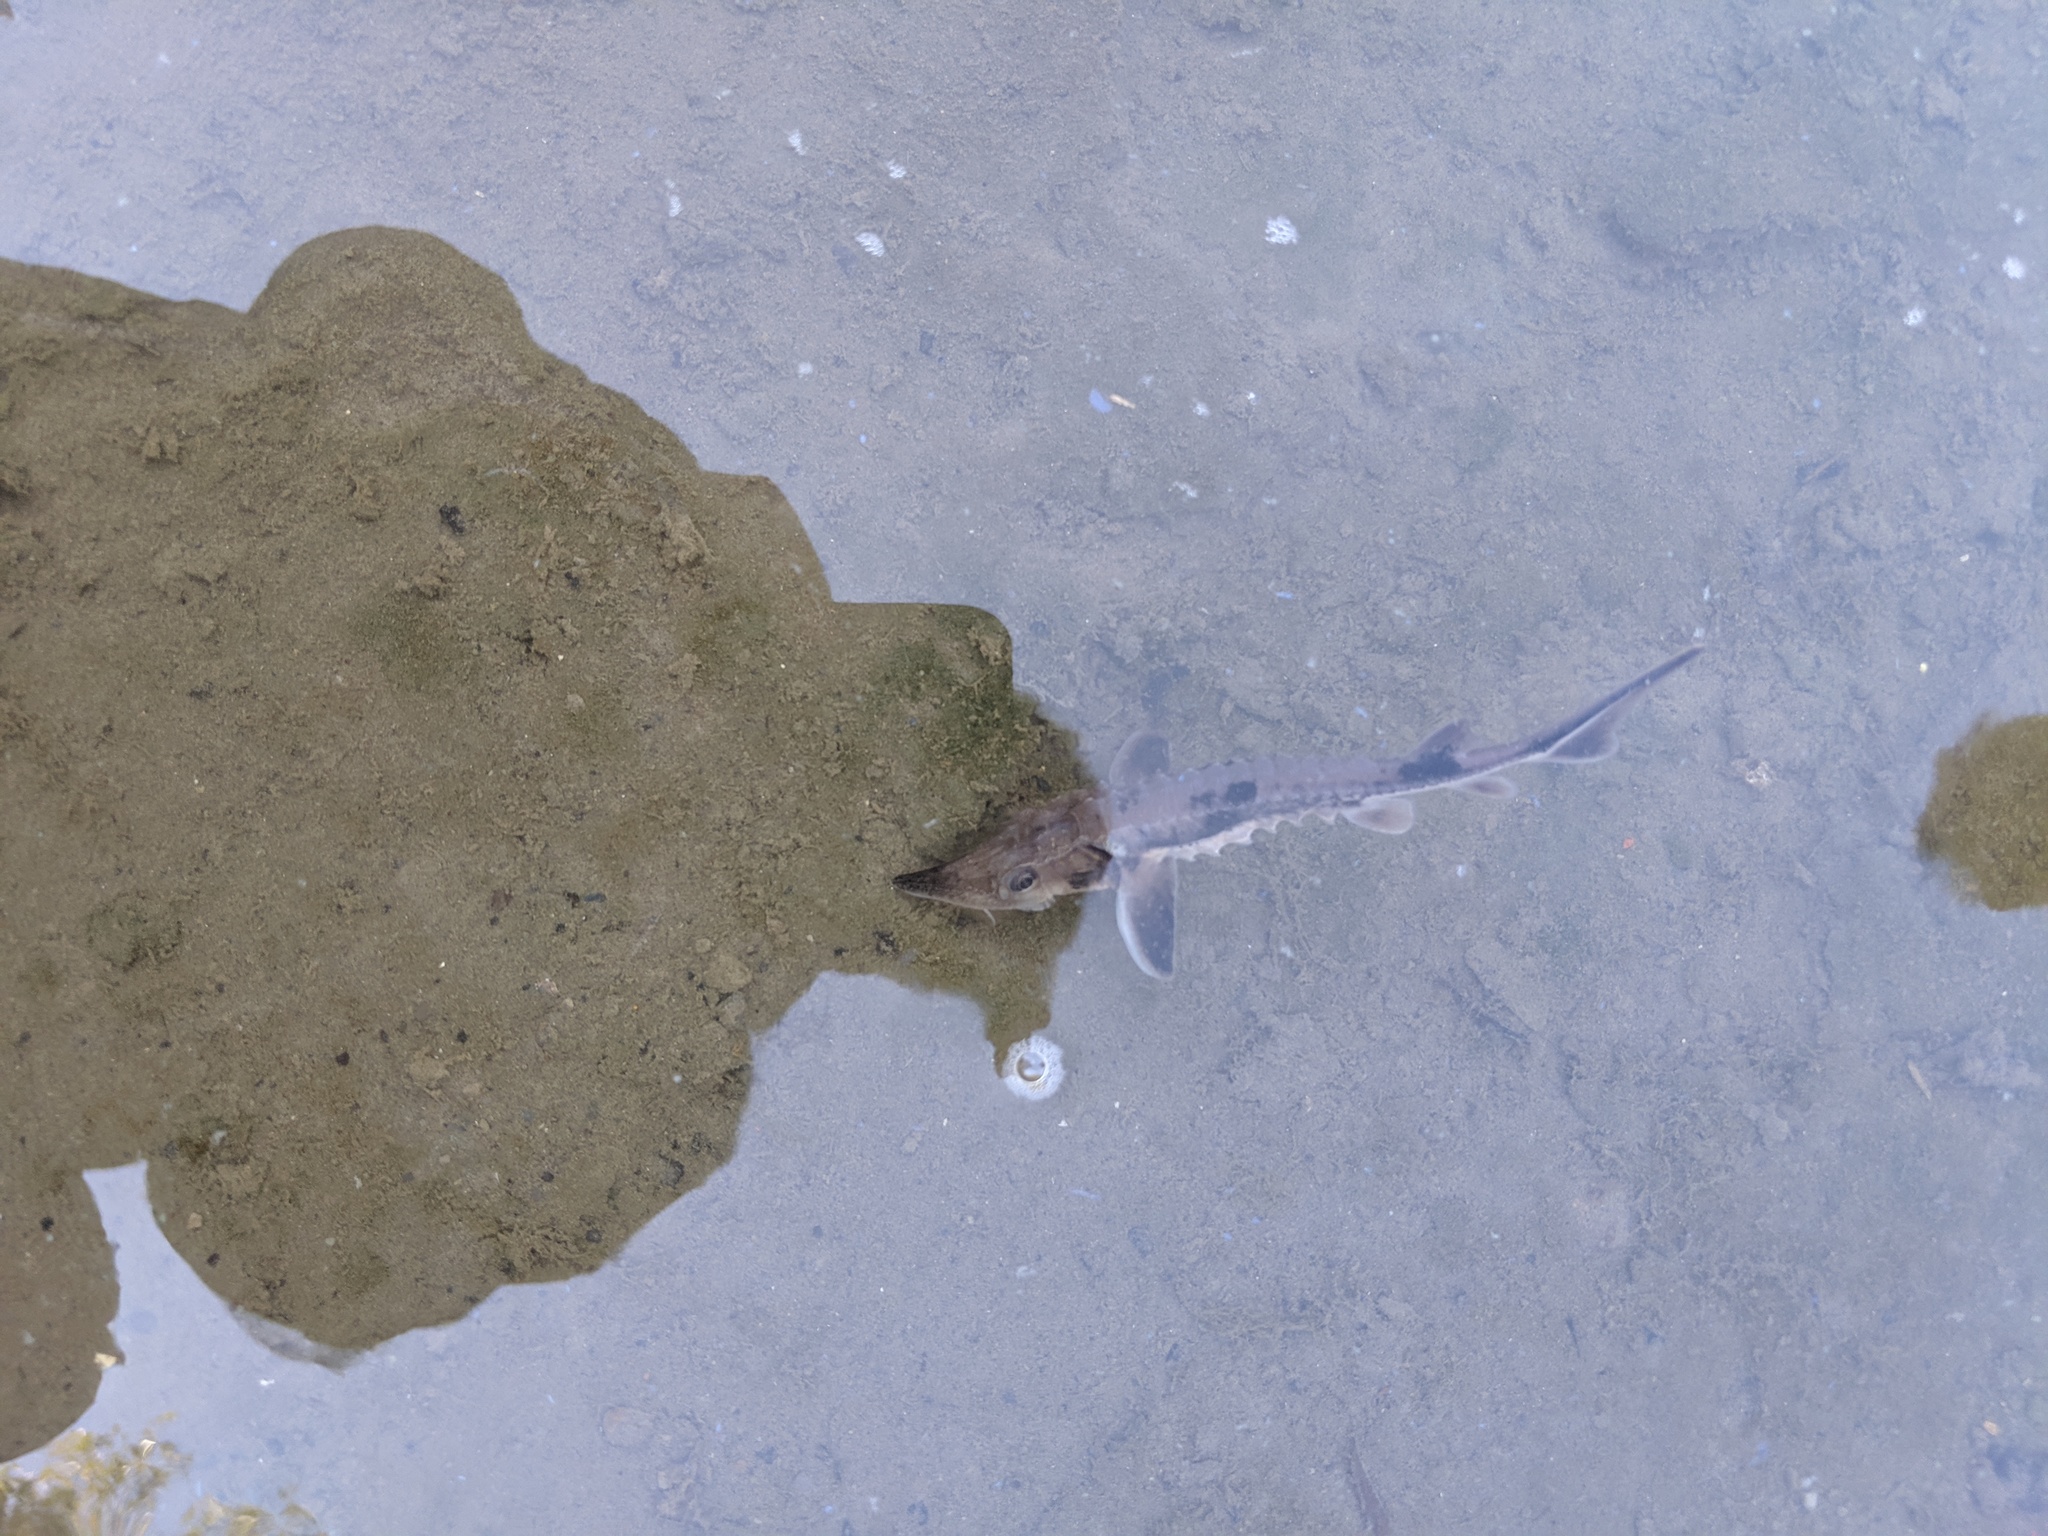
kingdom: Animalia
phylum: Chordata
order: Acipenseriformes
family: Acipenseridae
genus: Acipenser
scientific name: Acipenser fulvescens
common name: Lake sturgeon
